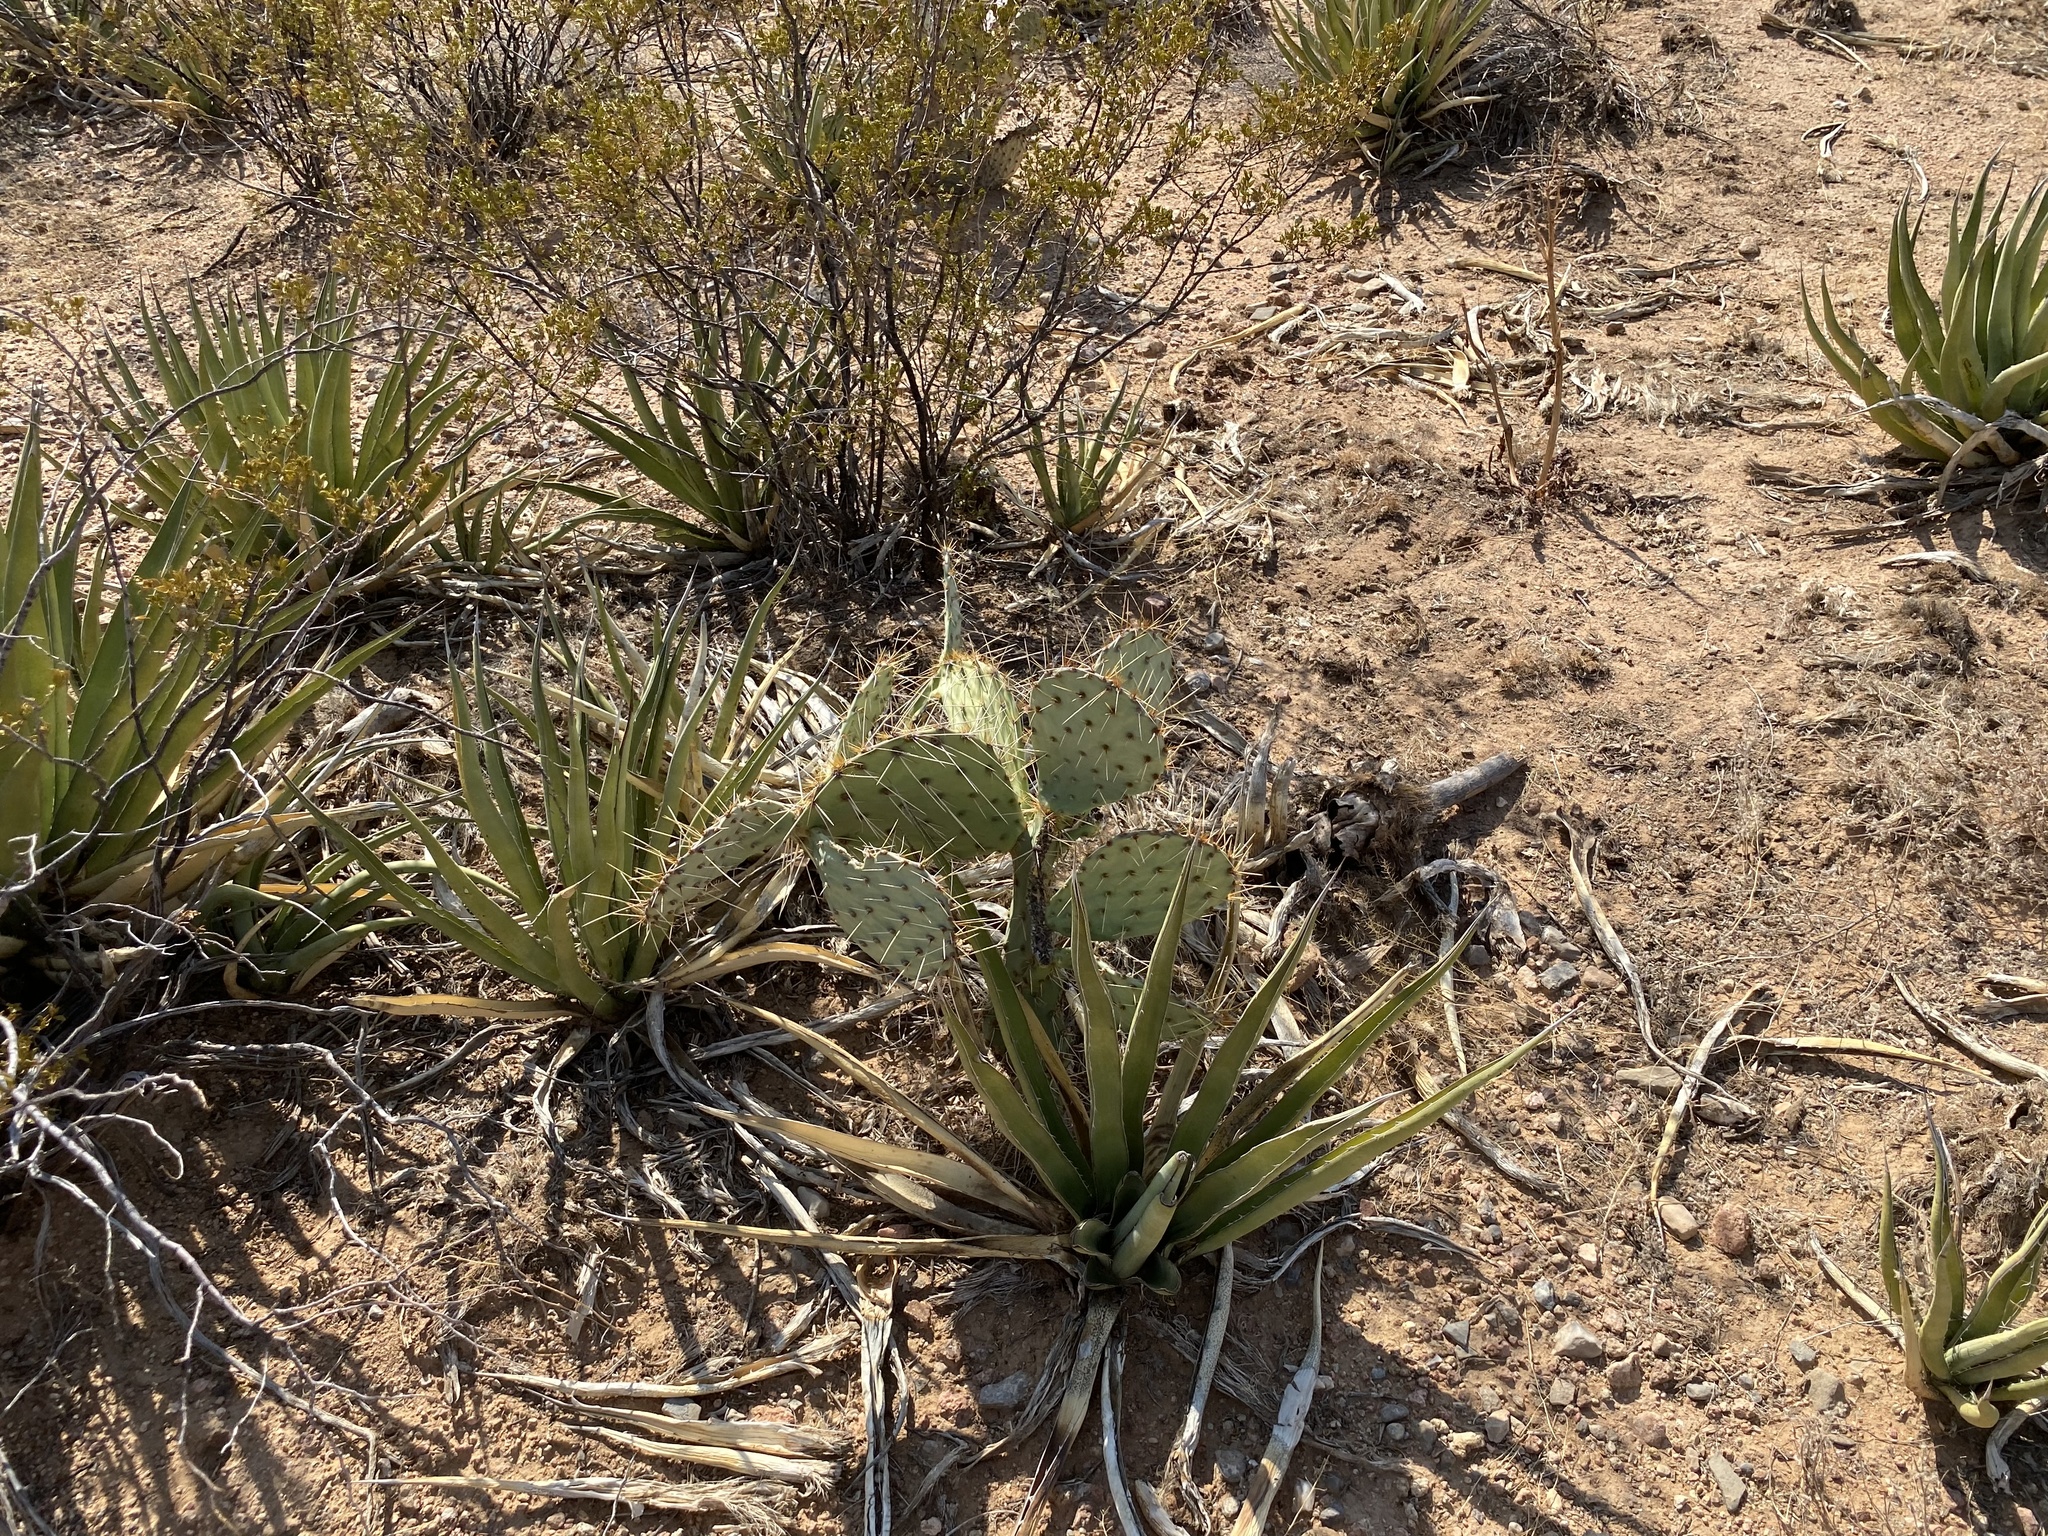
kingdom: Plantae
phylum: Tracheophyta
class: Liliopsida
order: Asparagales
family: Asparagaceae
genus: Agave
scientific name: Agave lechuguilla
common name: Lecheguilla agave
